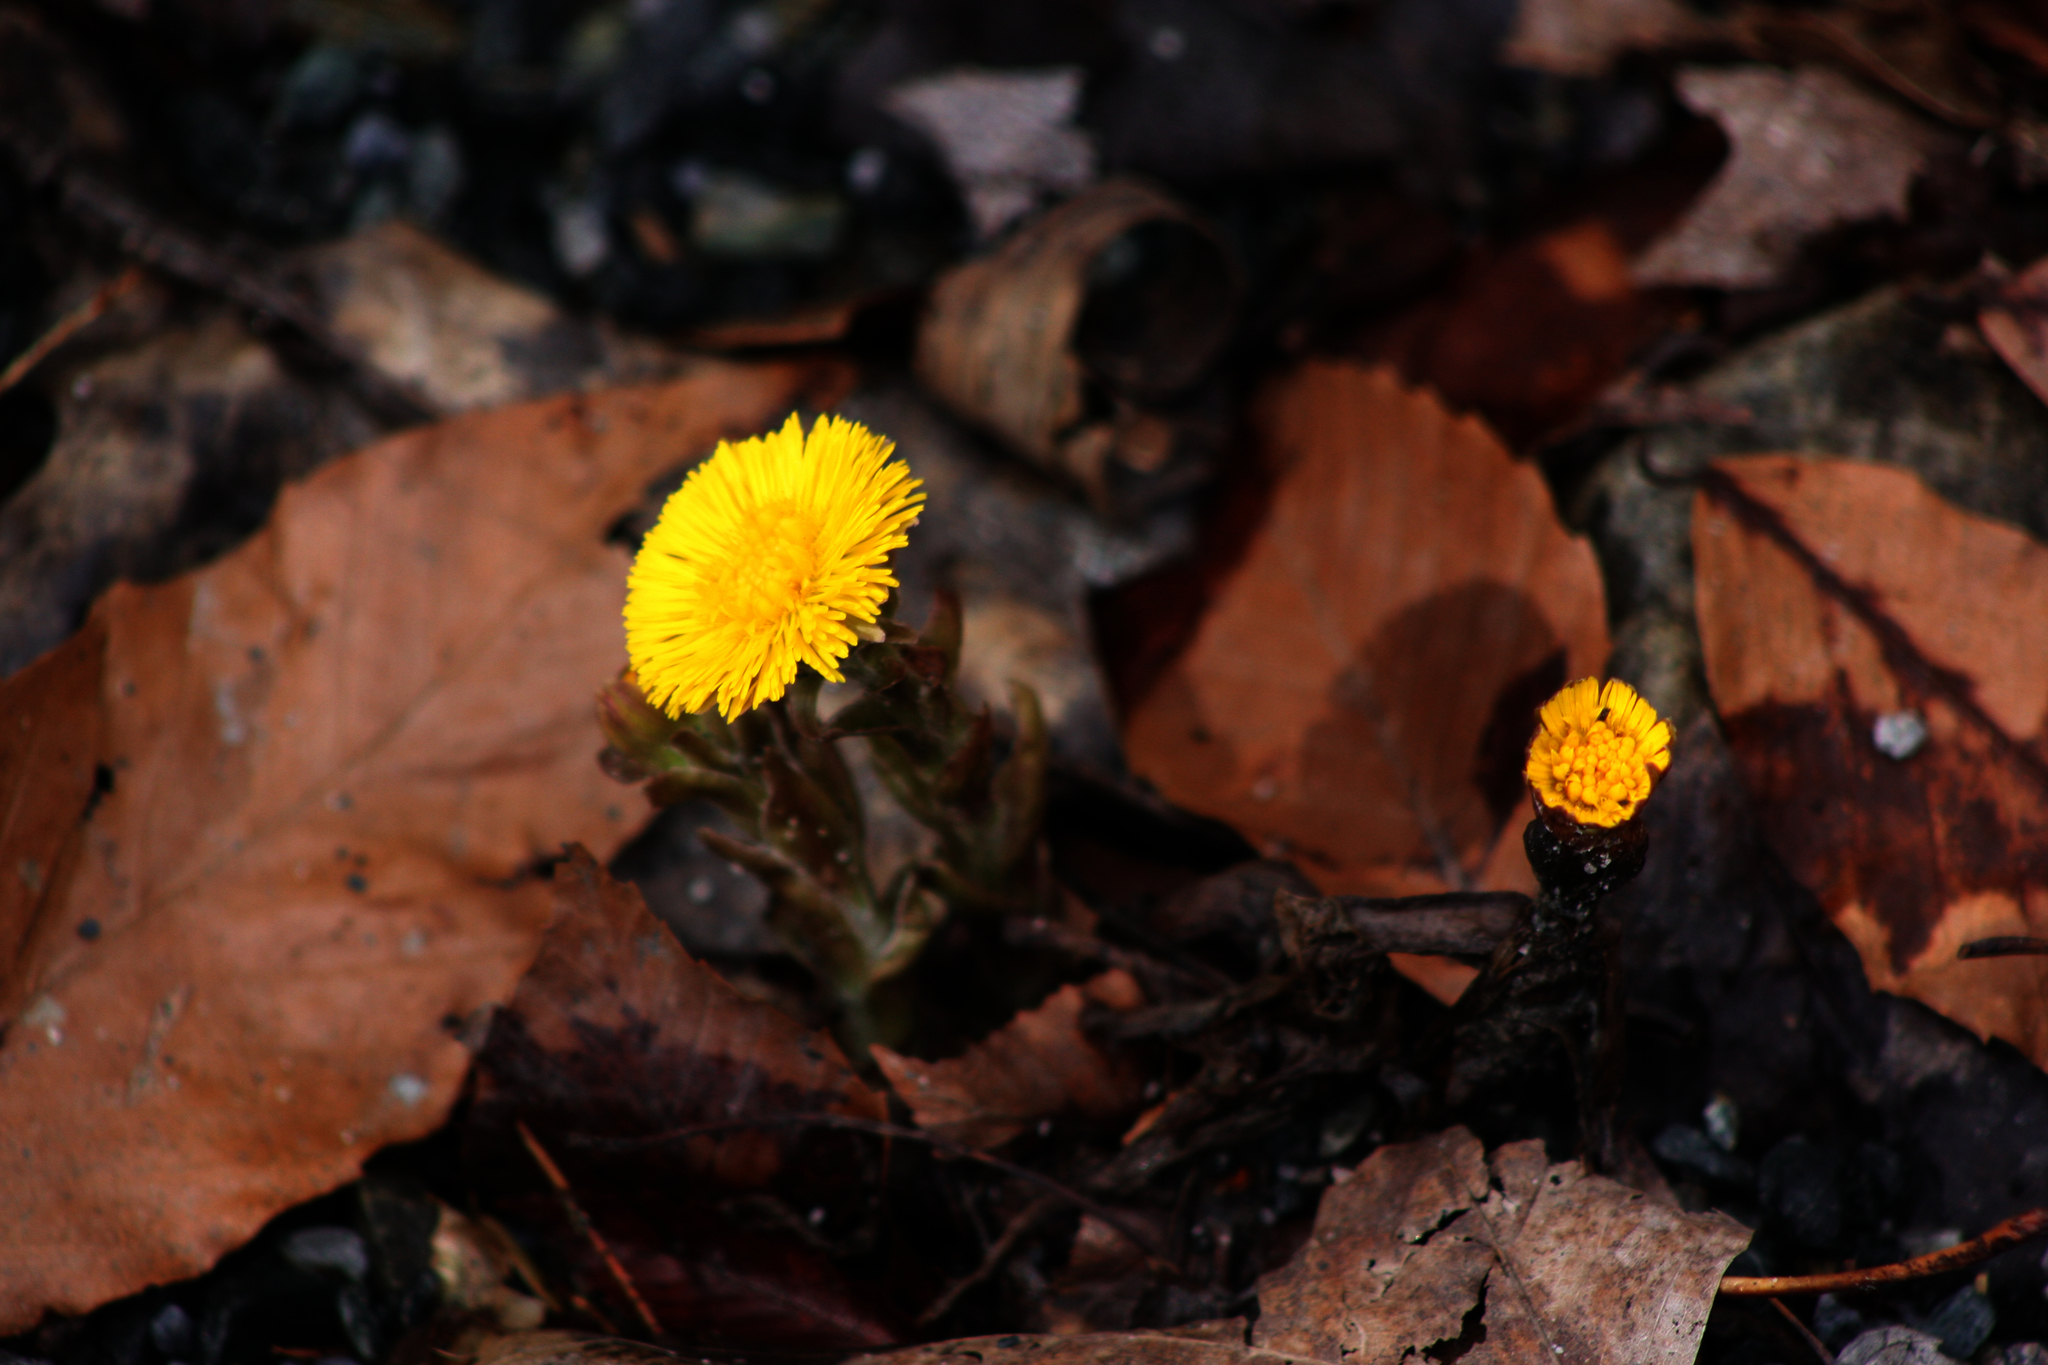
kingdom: Plantae
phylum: Tracheophyta
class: Magnoliopsida
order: Asterales
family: Asteraceae
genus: Tussilago
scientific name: Tussilago farfara
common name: Coltsfoot
